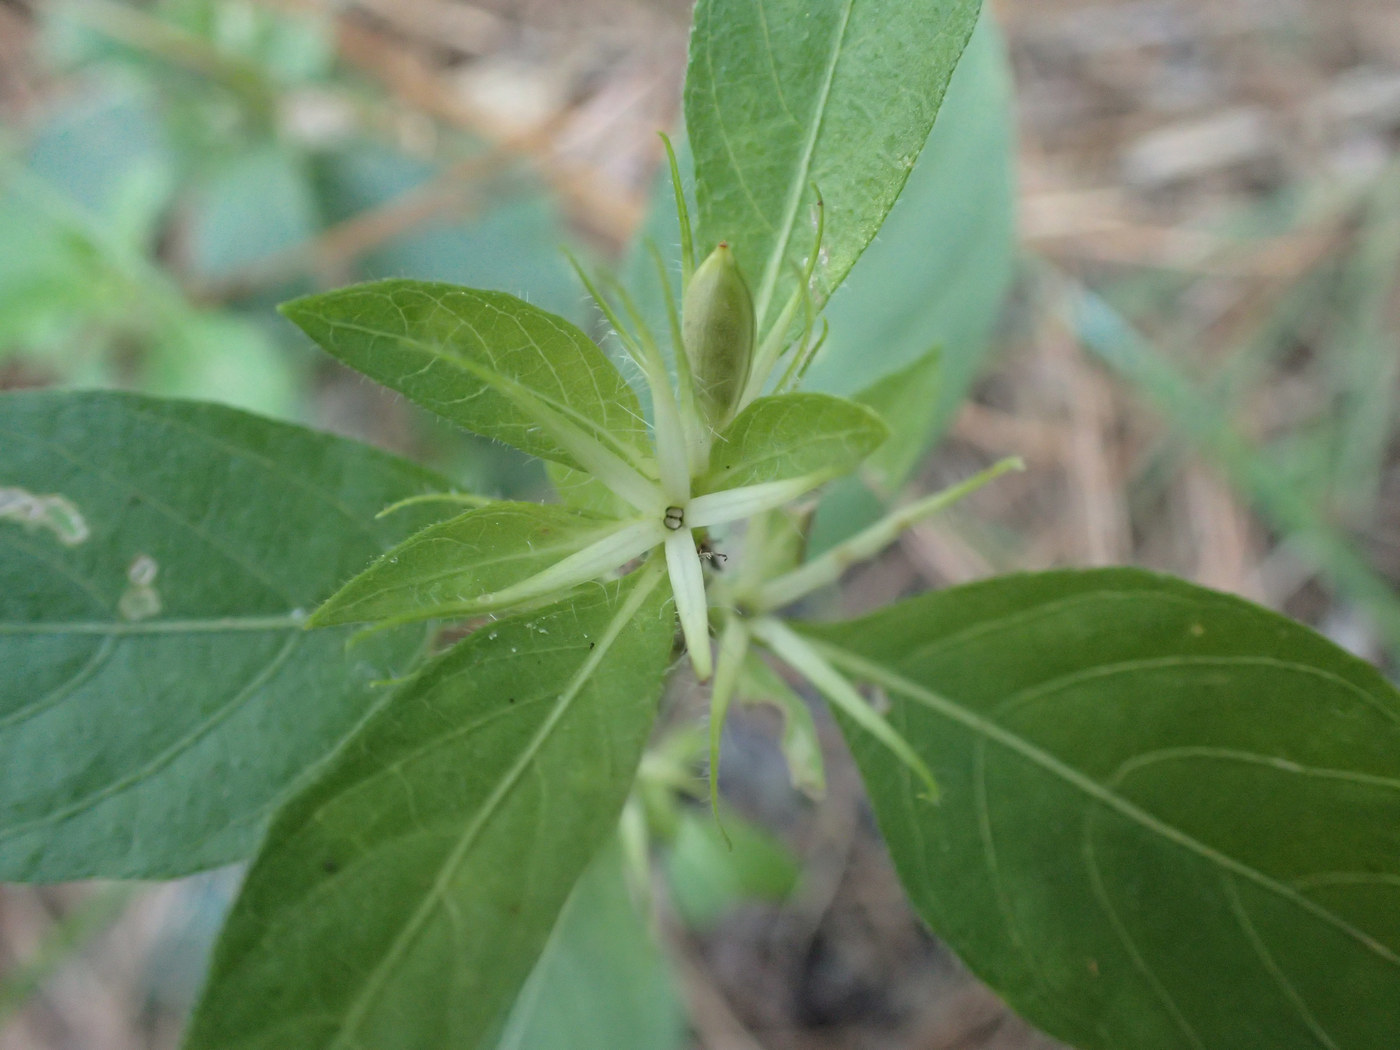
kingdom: Plantae
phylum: Tracheophyta
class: Magnoliopsida
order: Lamiales
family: Acanthaceae
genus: Ruellia
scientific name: Ruellia caroliniensis
